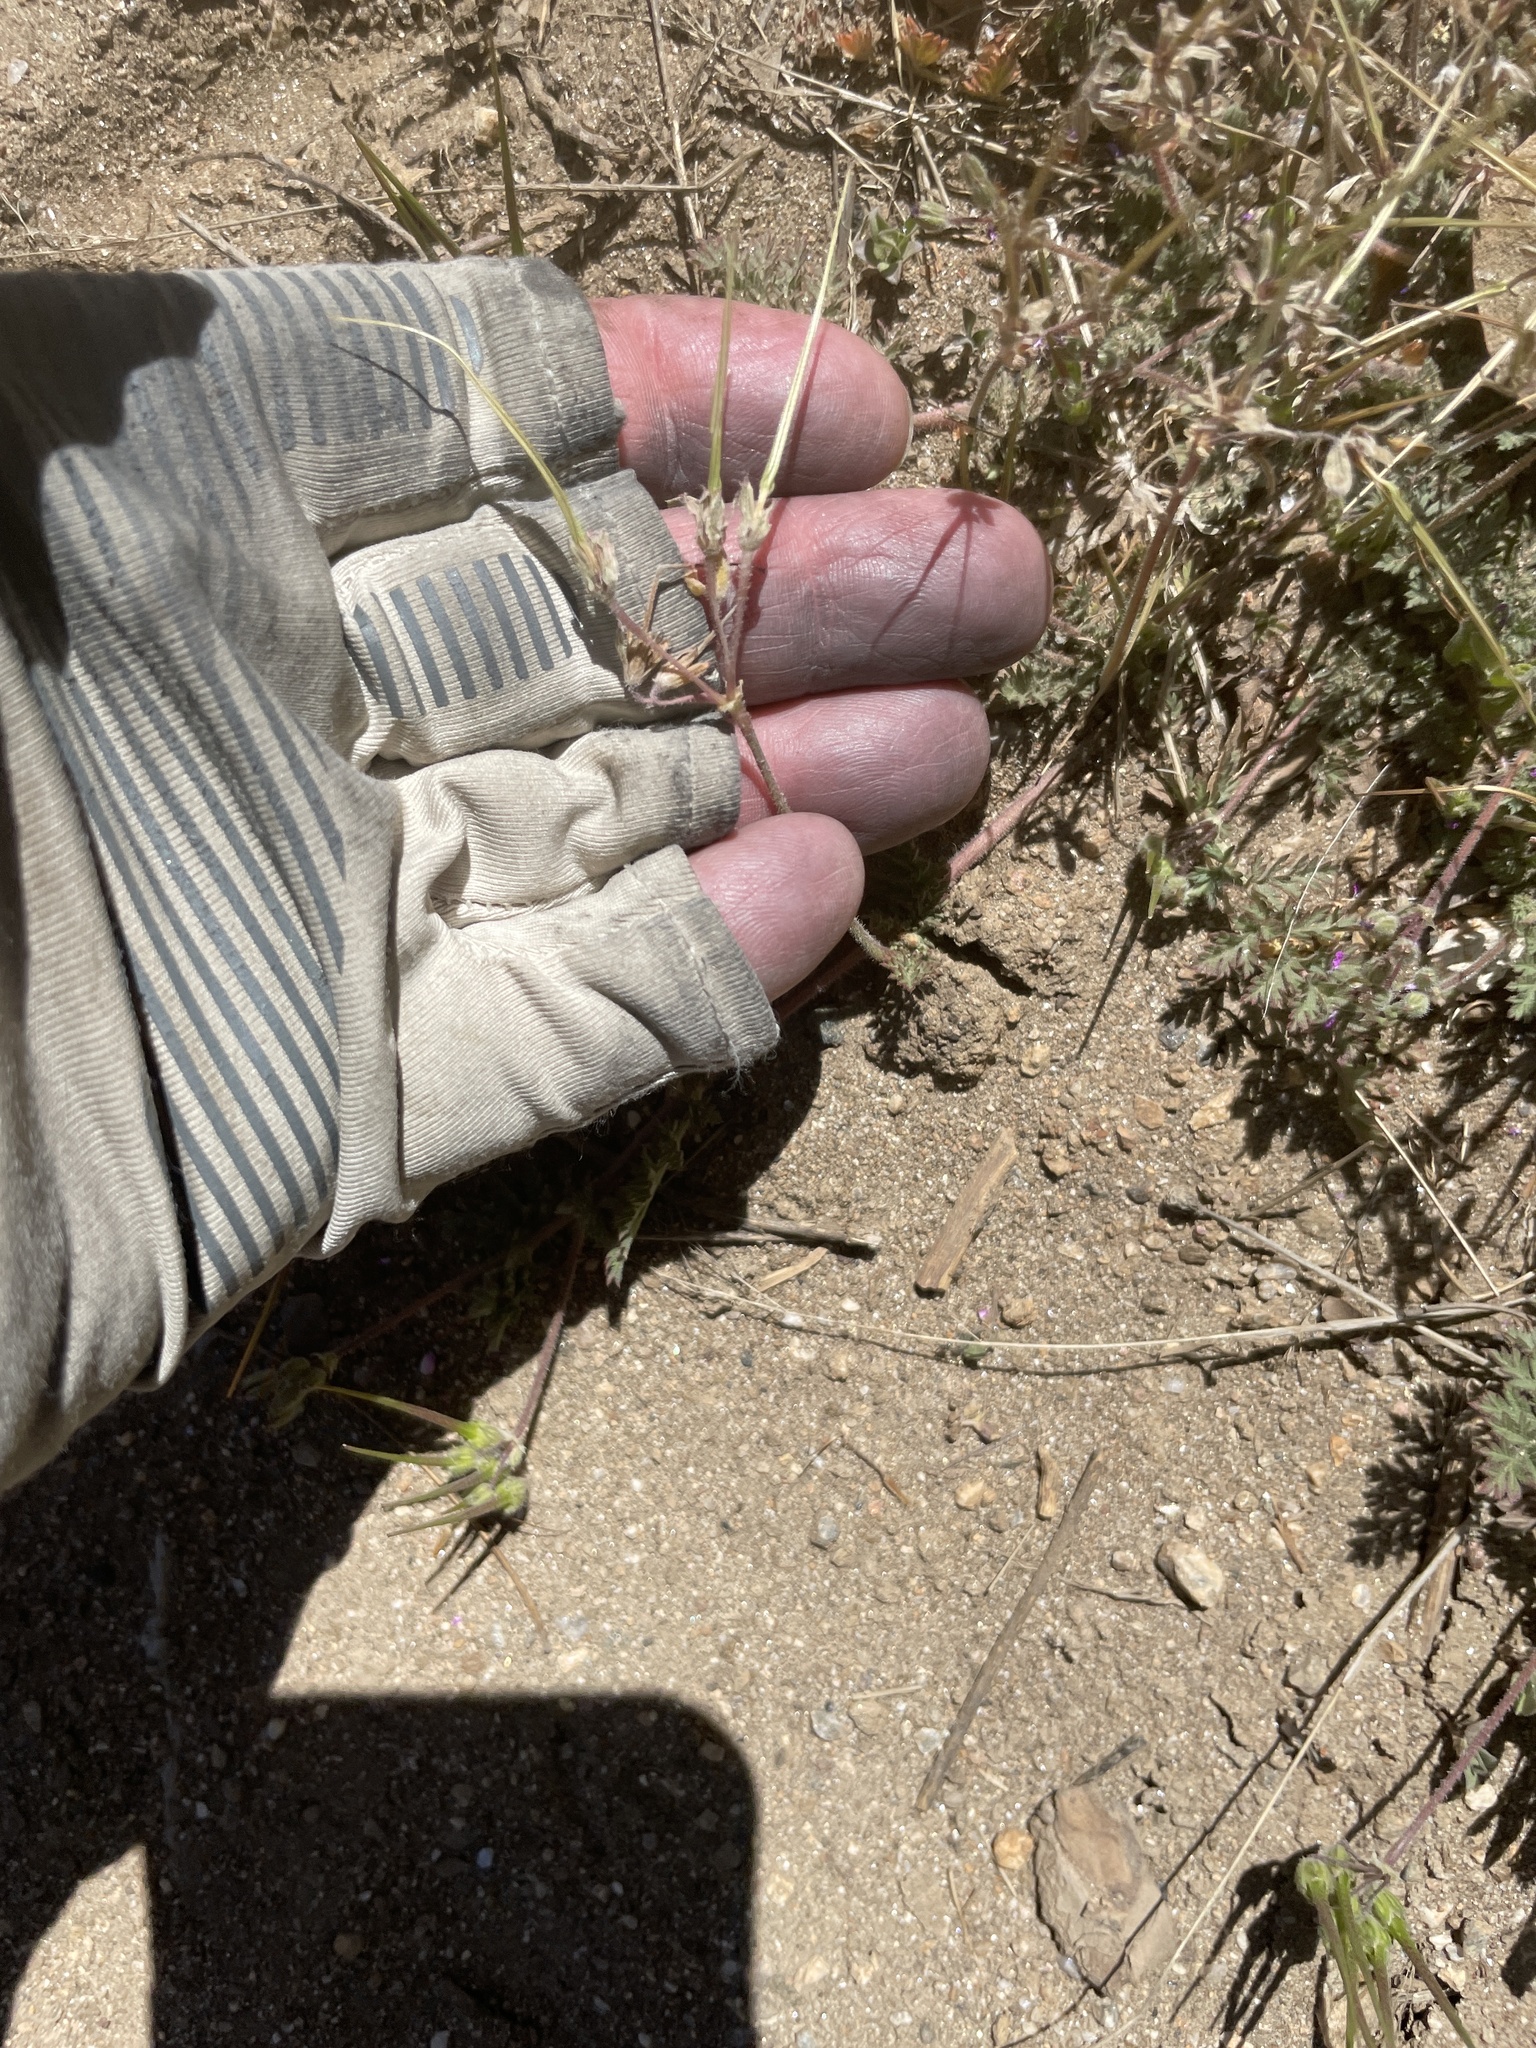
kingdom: Plantae
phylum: Tracheophyta
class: Magnoliopsida
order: Geraniales
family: Geraniaceae
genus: Erodium
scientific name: Erodium cicutarium
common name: Common stork's-bill
